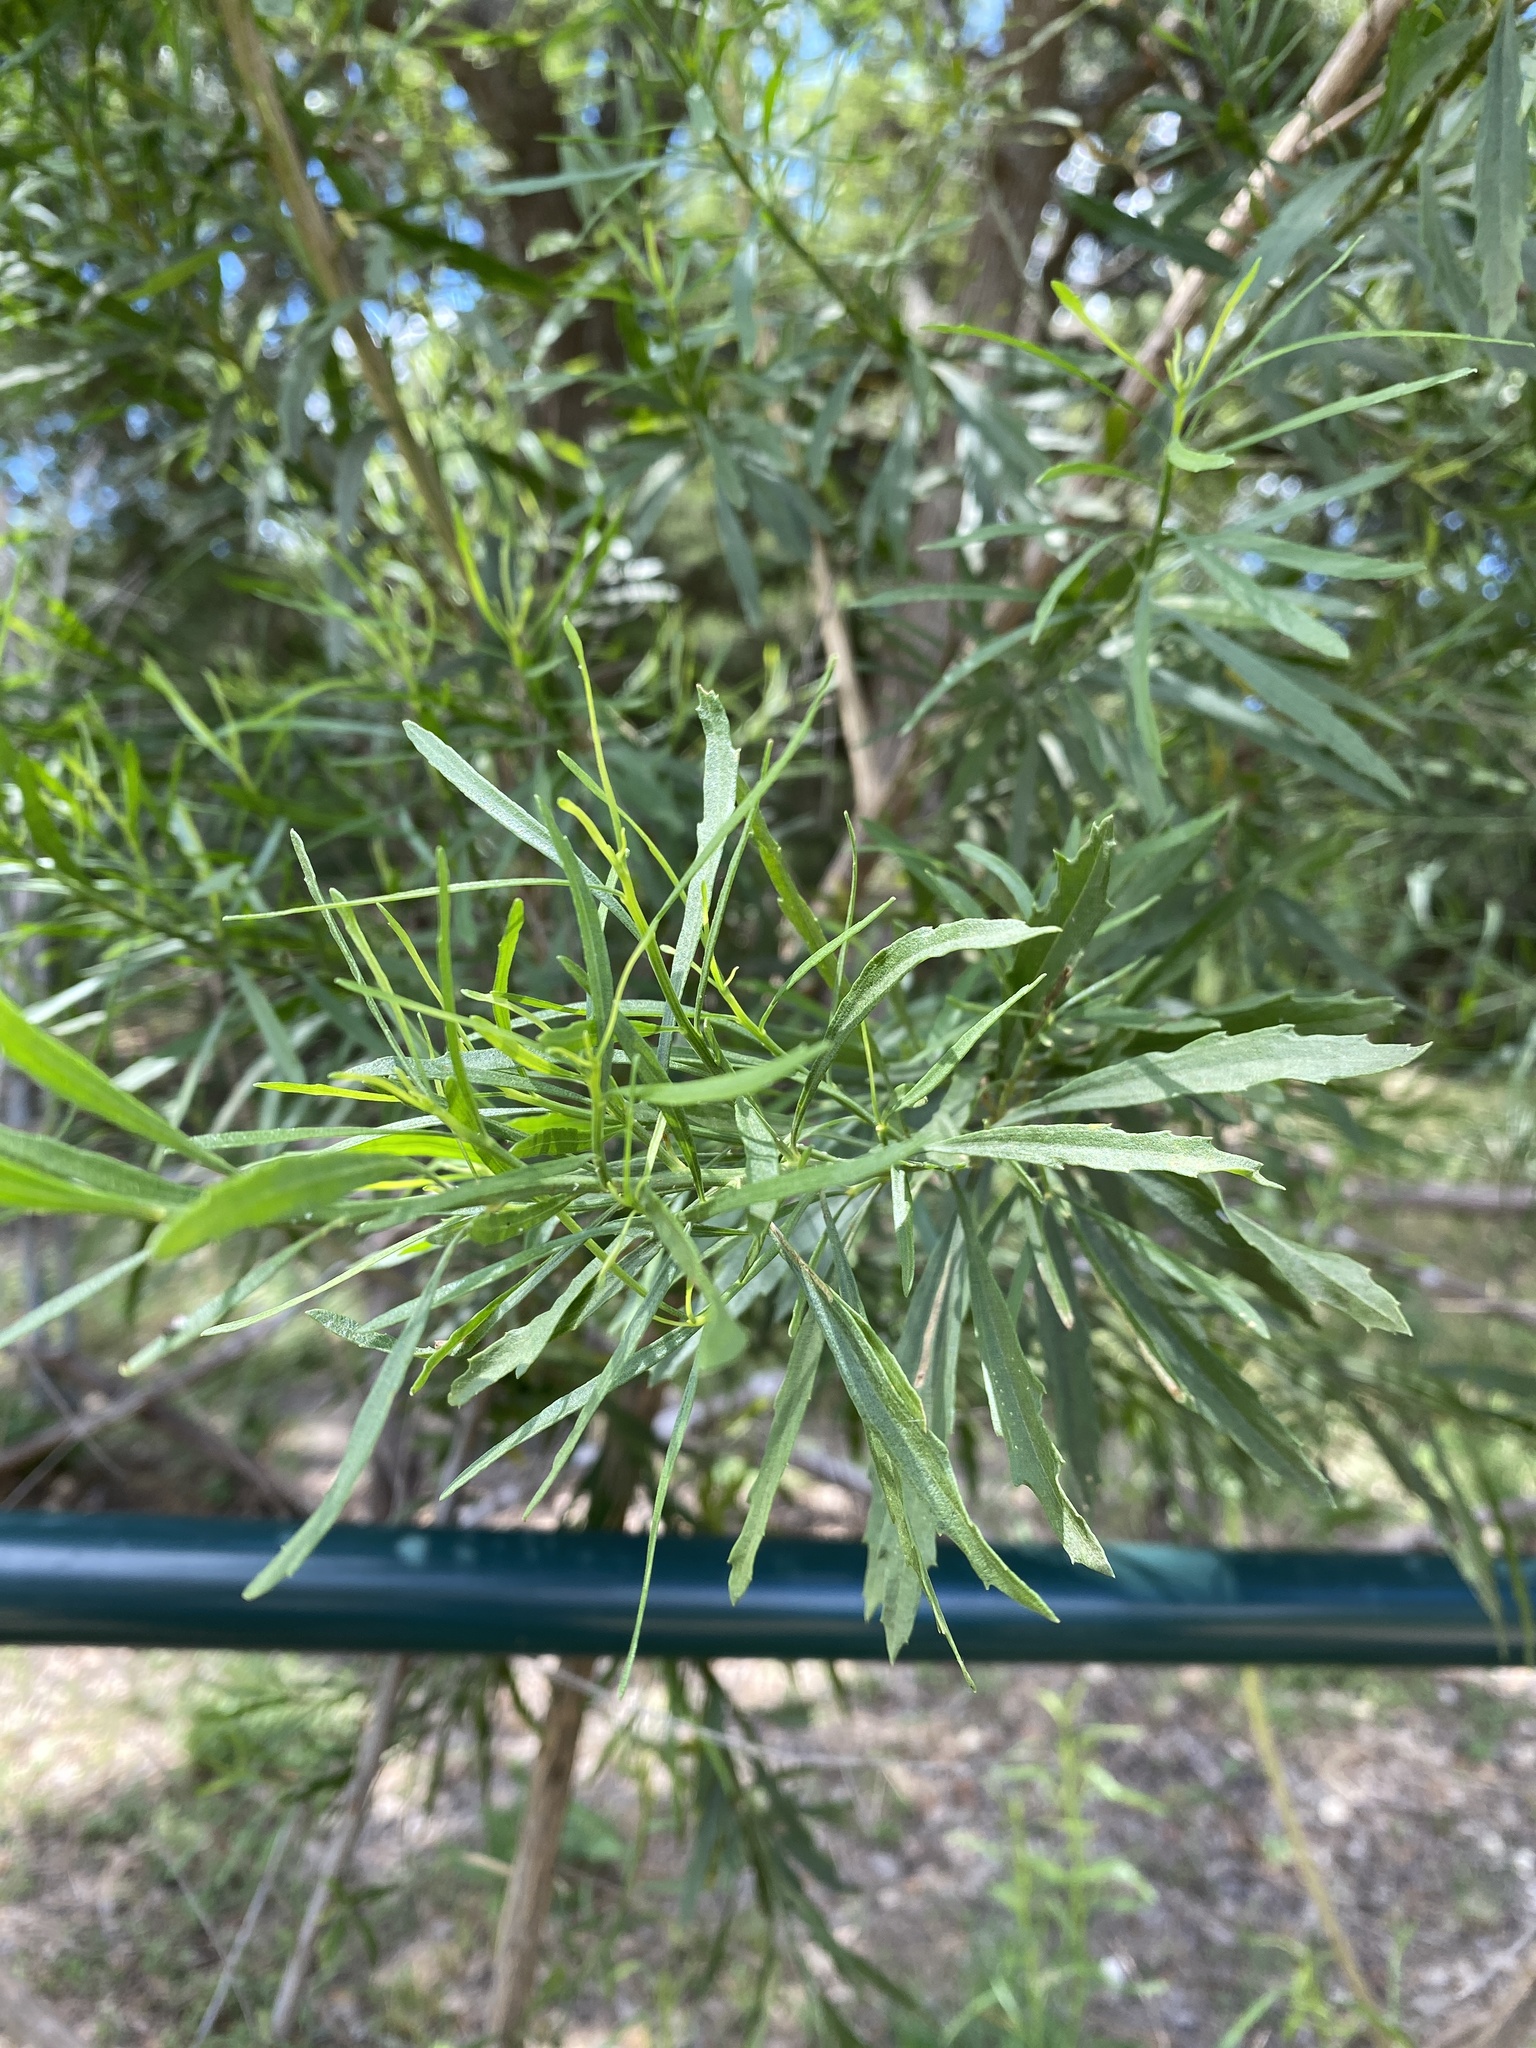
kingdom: Plantae
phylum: Tracheophyta
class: Magnoliopsida
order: Asterales
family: Asteraceae
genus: Baccharis
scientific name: Baccharis neglecta
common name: Roosevelt-weed
